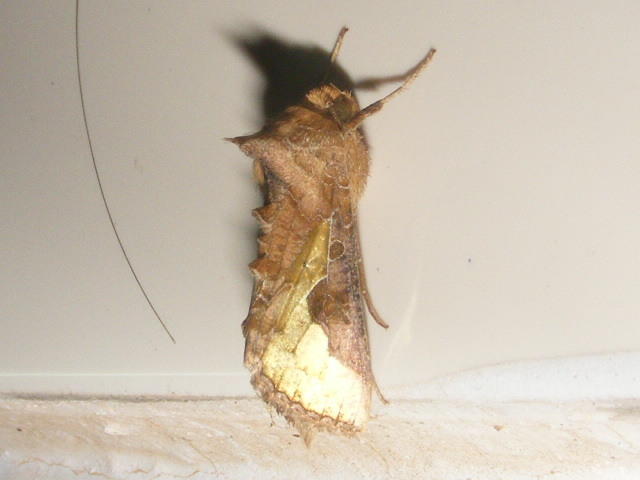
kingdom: Animalia
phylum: Arthropoda
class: Insecta
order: Lepidoptera
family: Noctuidae
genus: Thysanoplusia
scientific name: Thysanoplusia orichalcea
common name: Slender burnished brass, golden plusia
